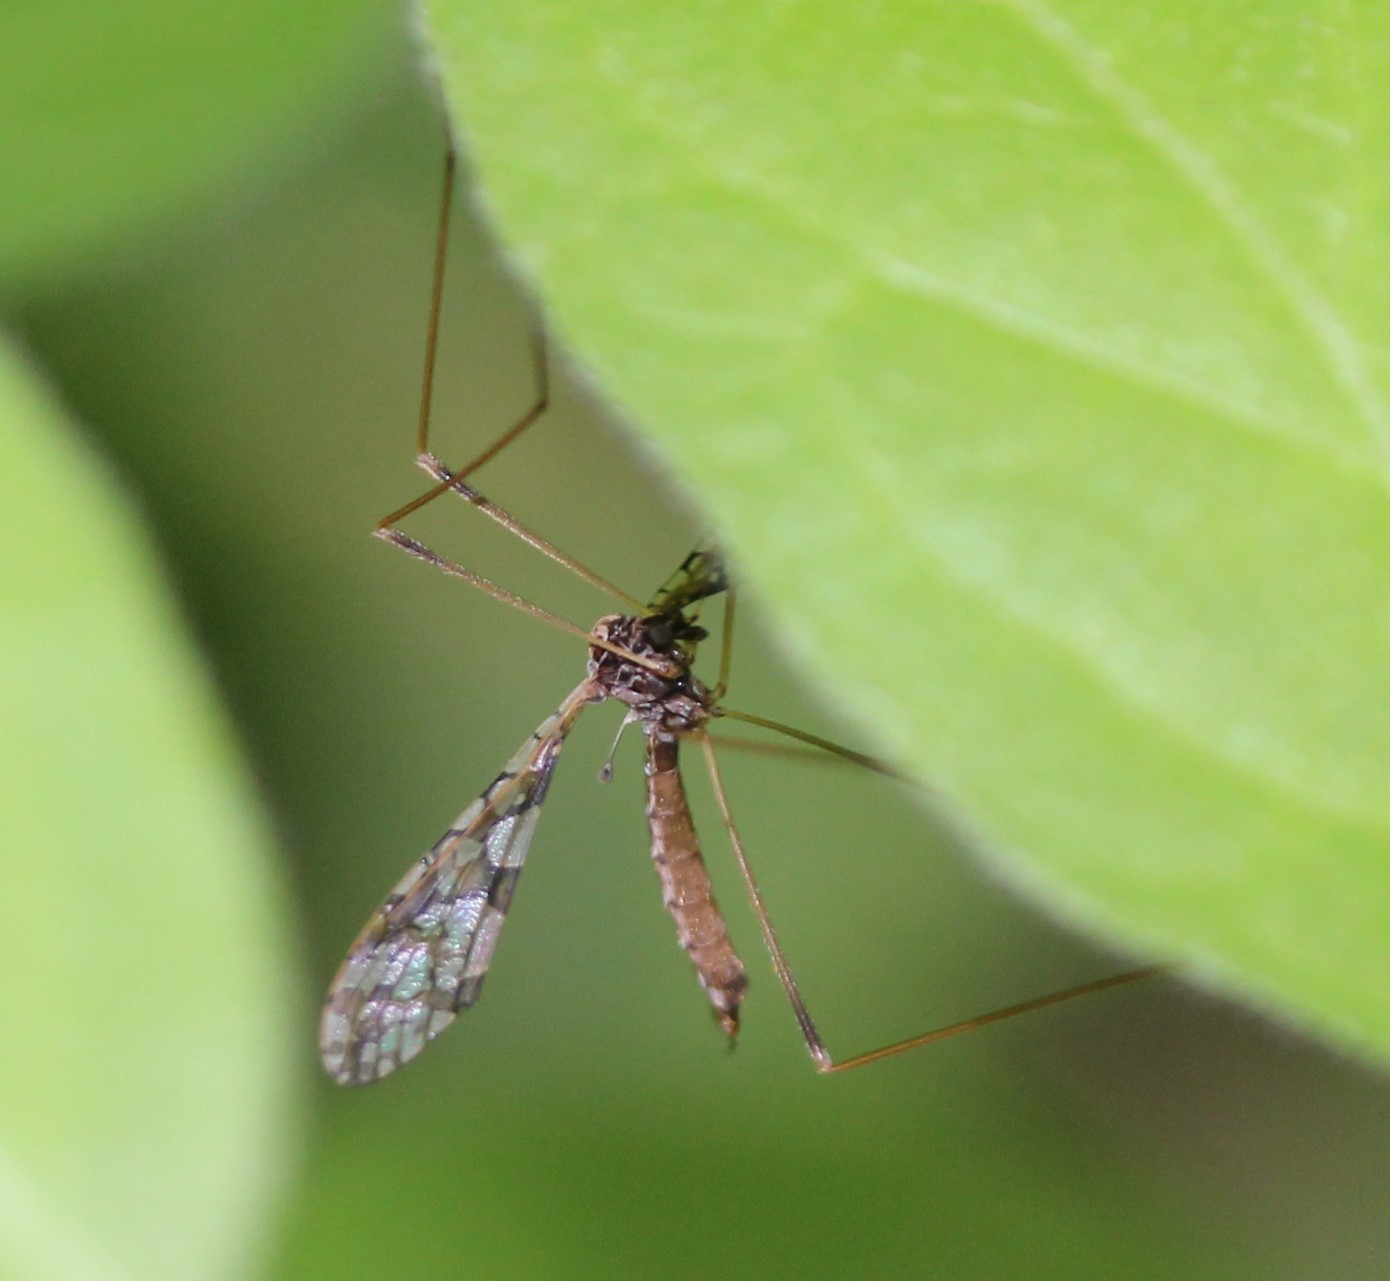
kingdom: Animalia
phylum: Arthropoda
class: Insecta
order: Diptera
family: Limoniidae
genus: Epiphragma
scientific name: Epiphragma solatrix
